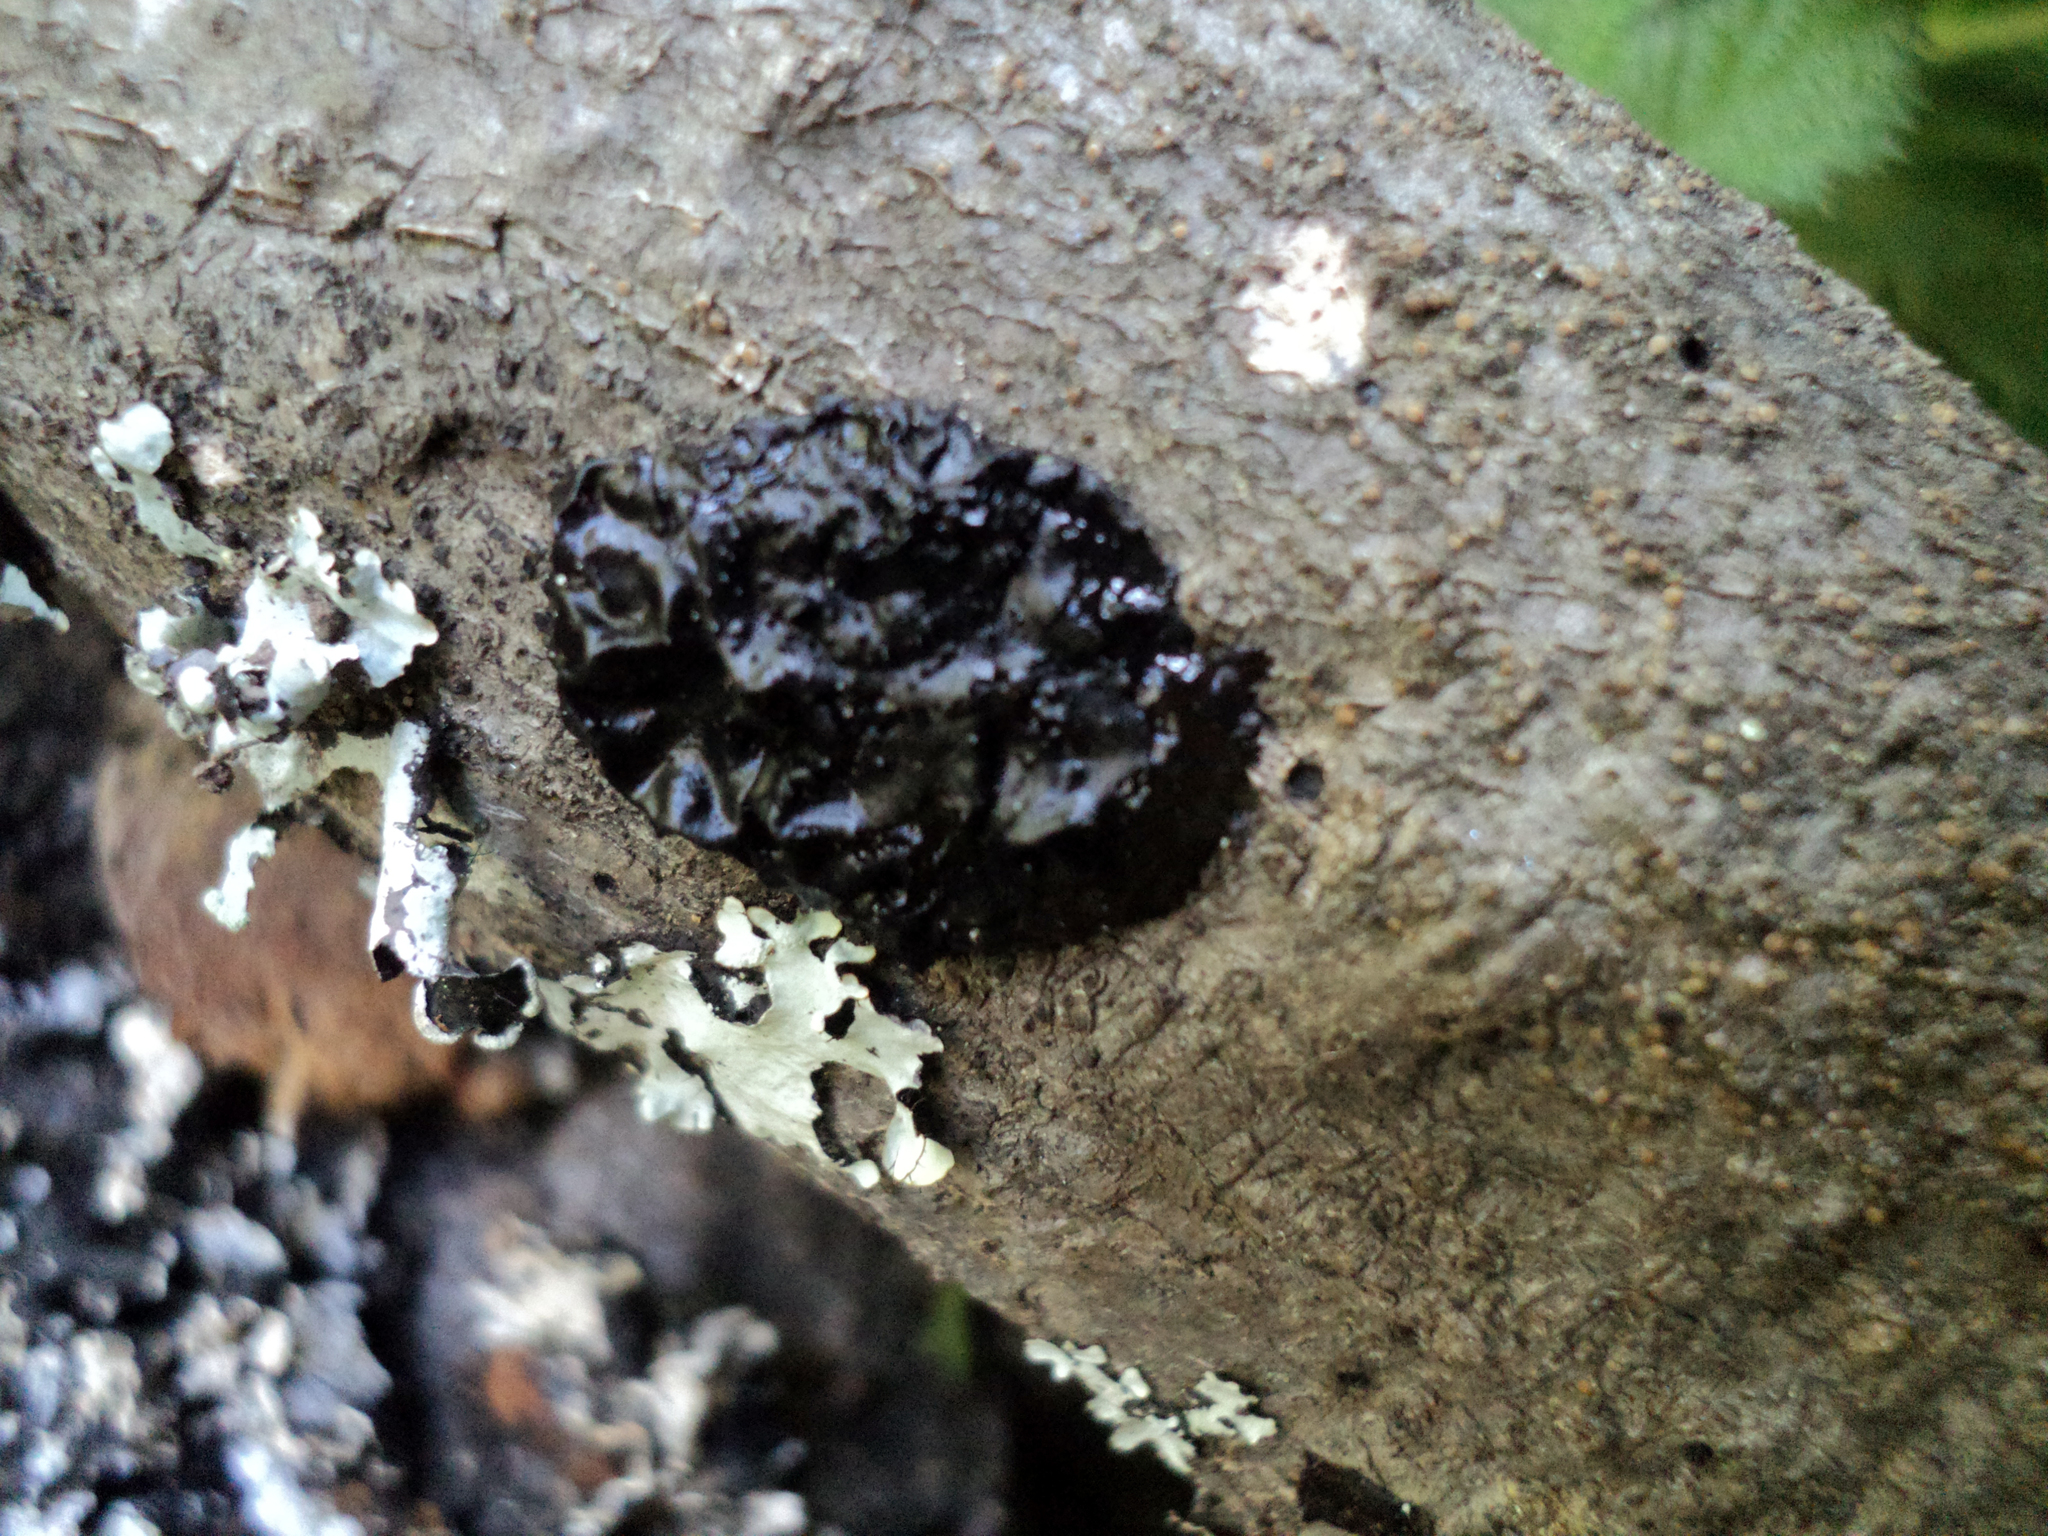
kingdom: Fungi
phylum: Basidiomycota
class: Agaricomycetes
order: Auriculariales
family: Auriculariaceae
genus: Exidia
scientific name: Exidia glandulosa
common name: Witches' butter
